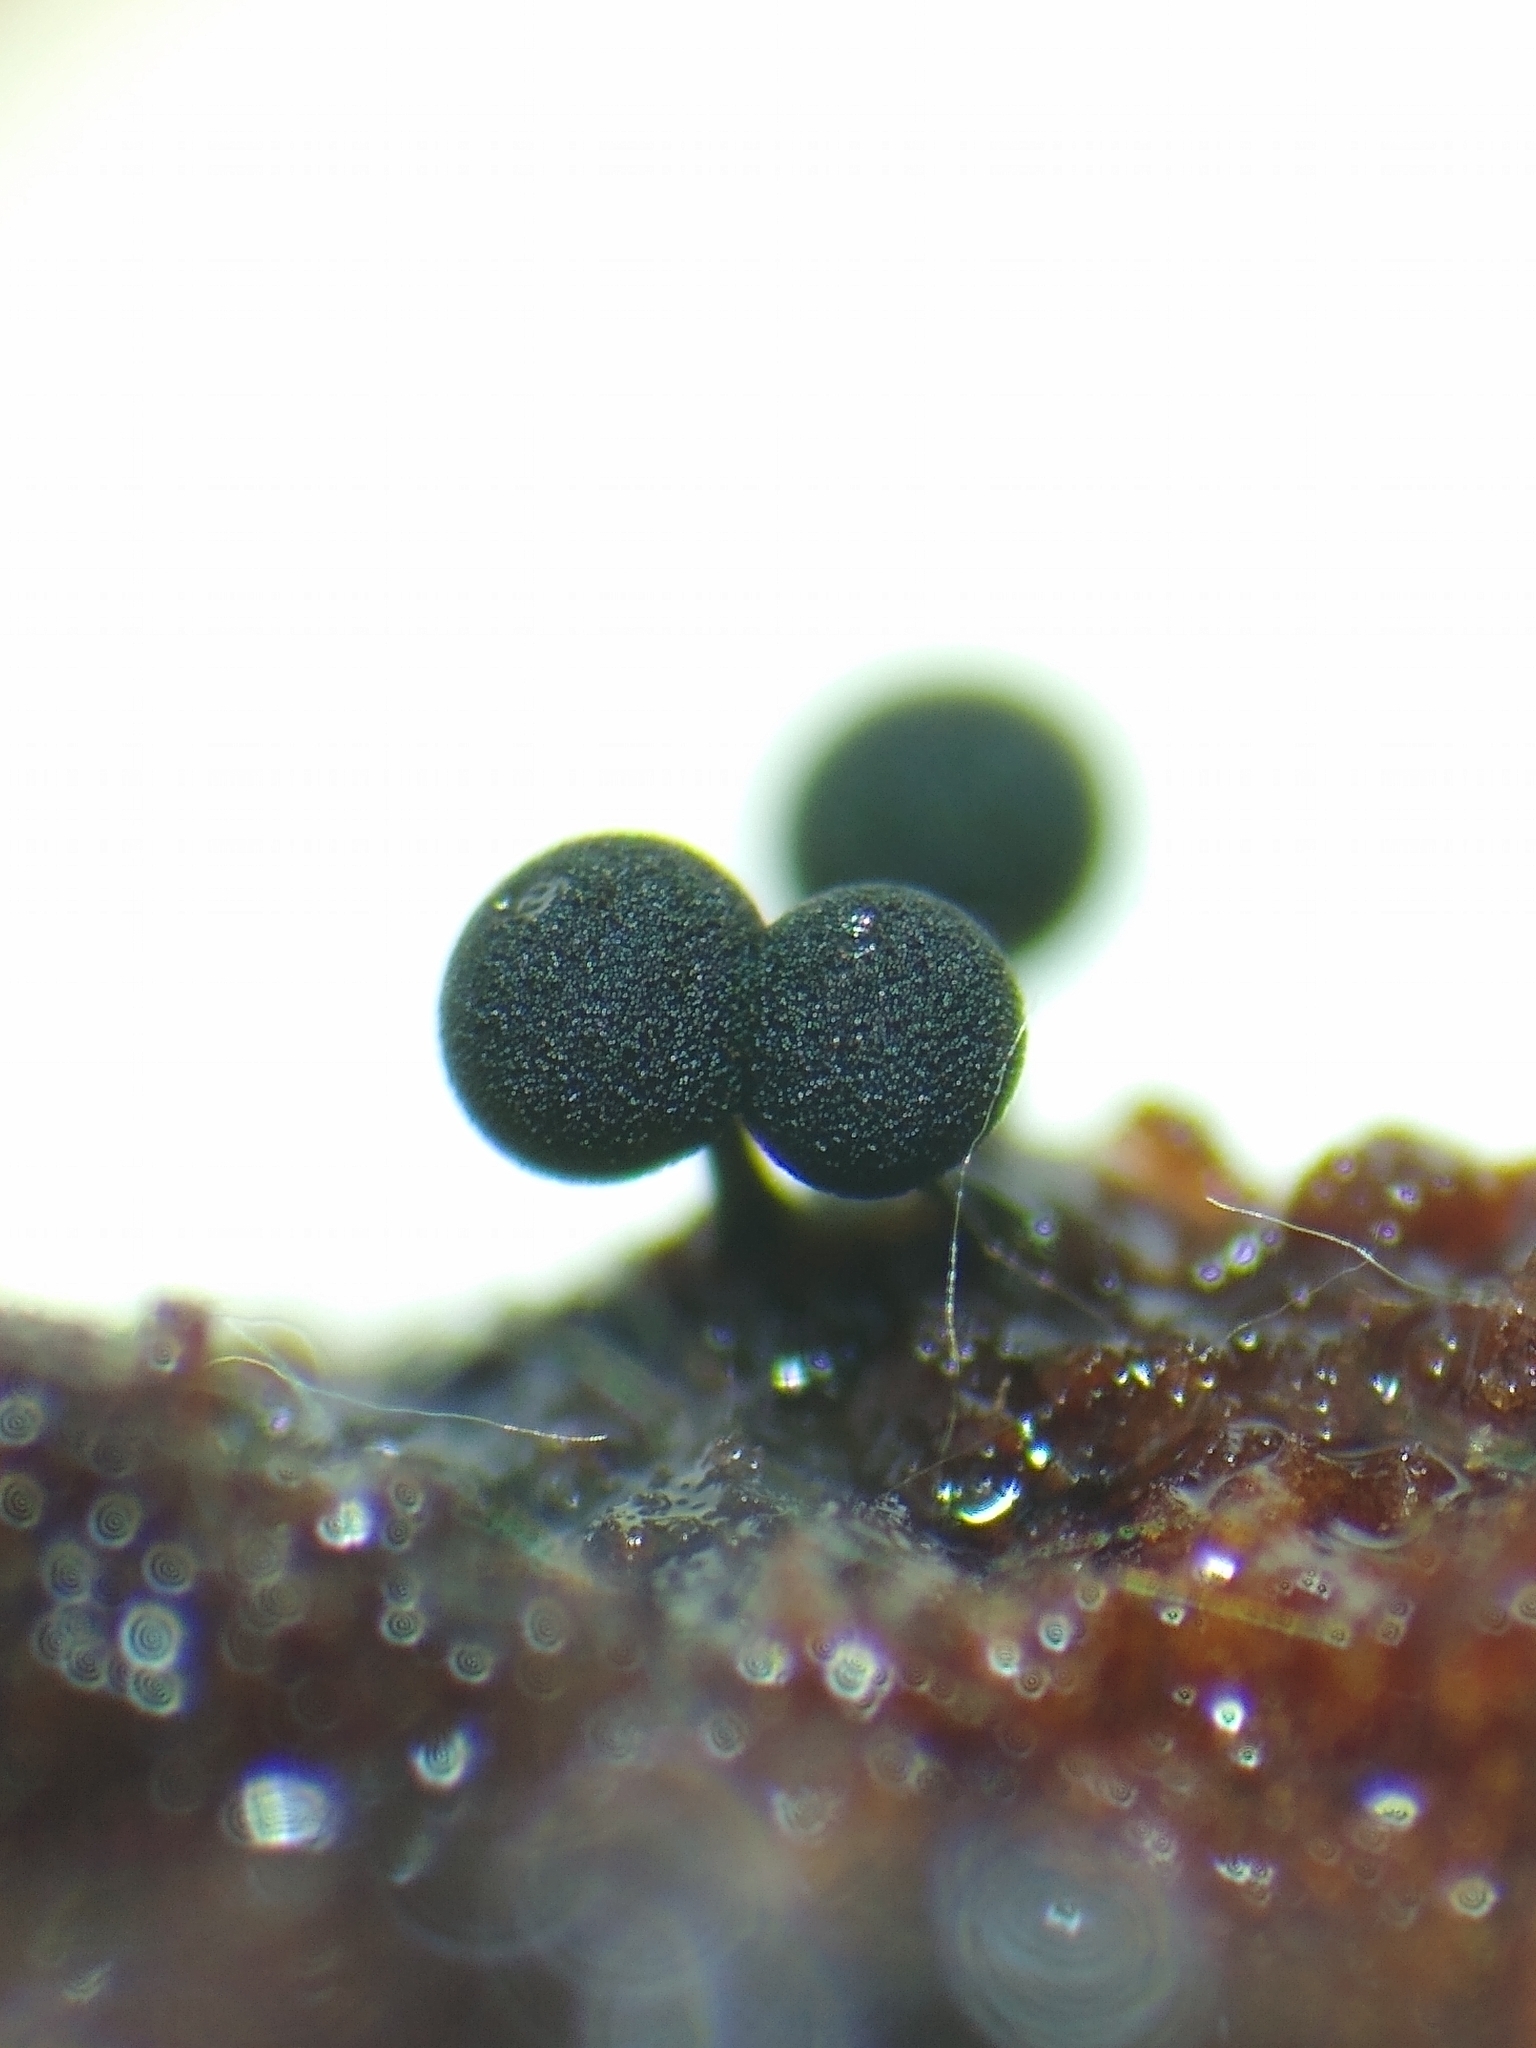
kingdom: Protozoa
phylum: Mycetozoa
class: Myxomycetes
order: Stemonitidales
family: Stemonitidaceae
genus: Enerthenema
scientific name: Enerthenema papillatum
